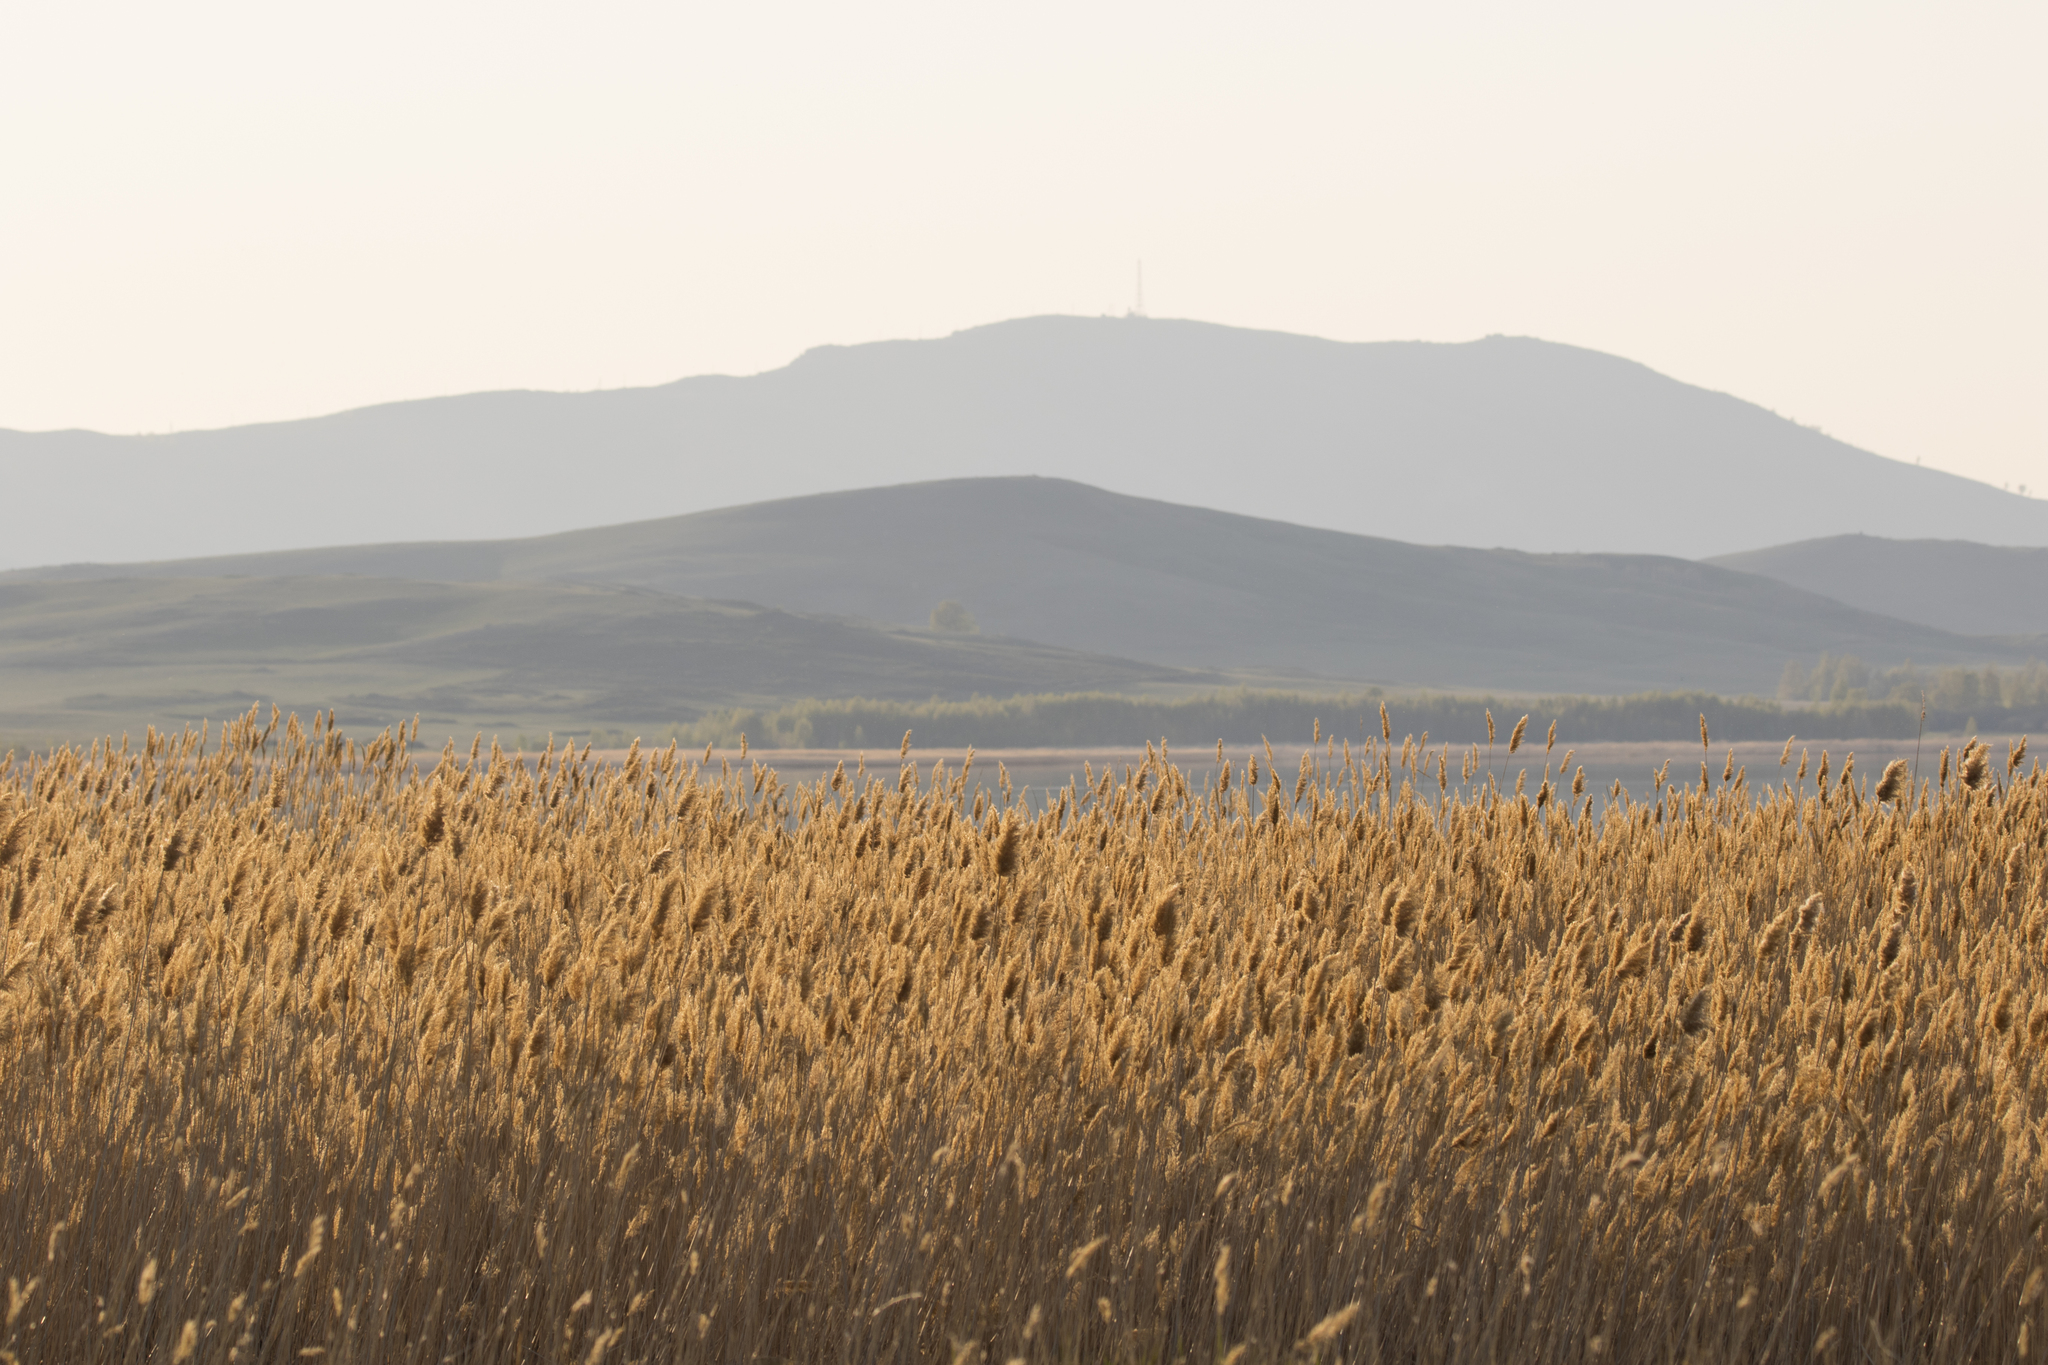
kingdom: Plantae
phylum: Tracheophyta
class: Liliopsida
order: Poales
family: Poaceae
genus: Phragmites
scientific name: Phragmites australis
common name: Common reed
